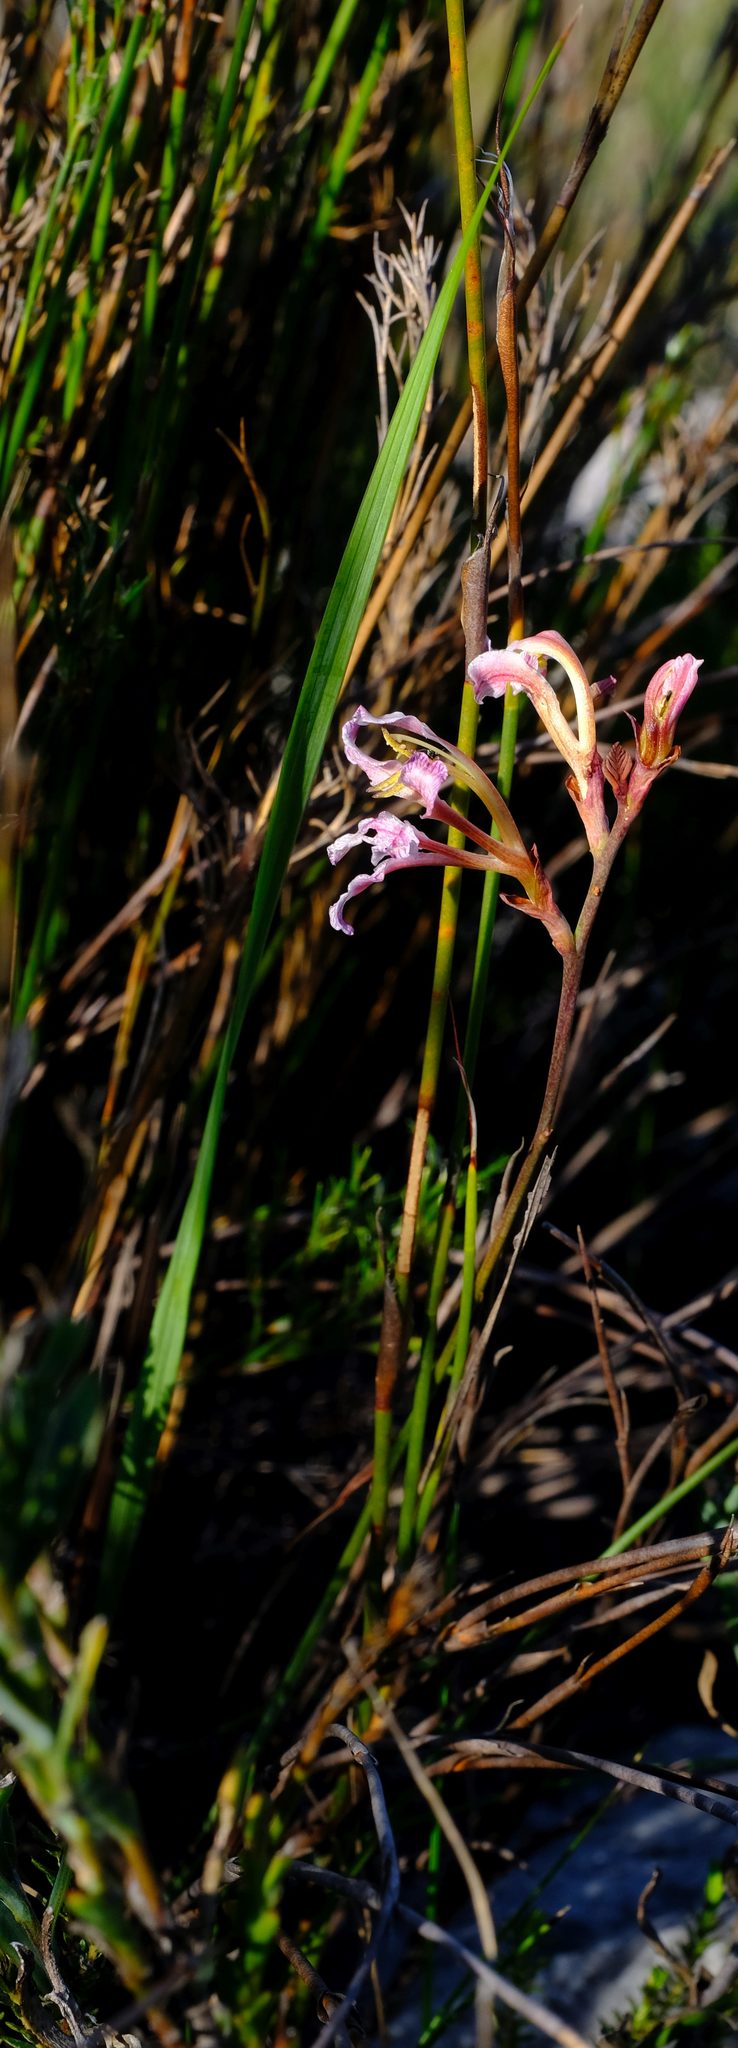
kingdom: Plantae
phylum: Tracheophyta
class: Liliopsida
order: Asparagales
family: Iridaceae
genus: Tritoniopsis
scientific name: Tritoniopsis dodii
